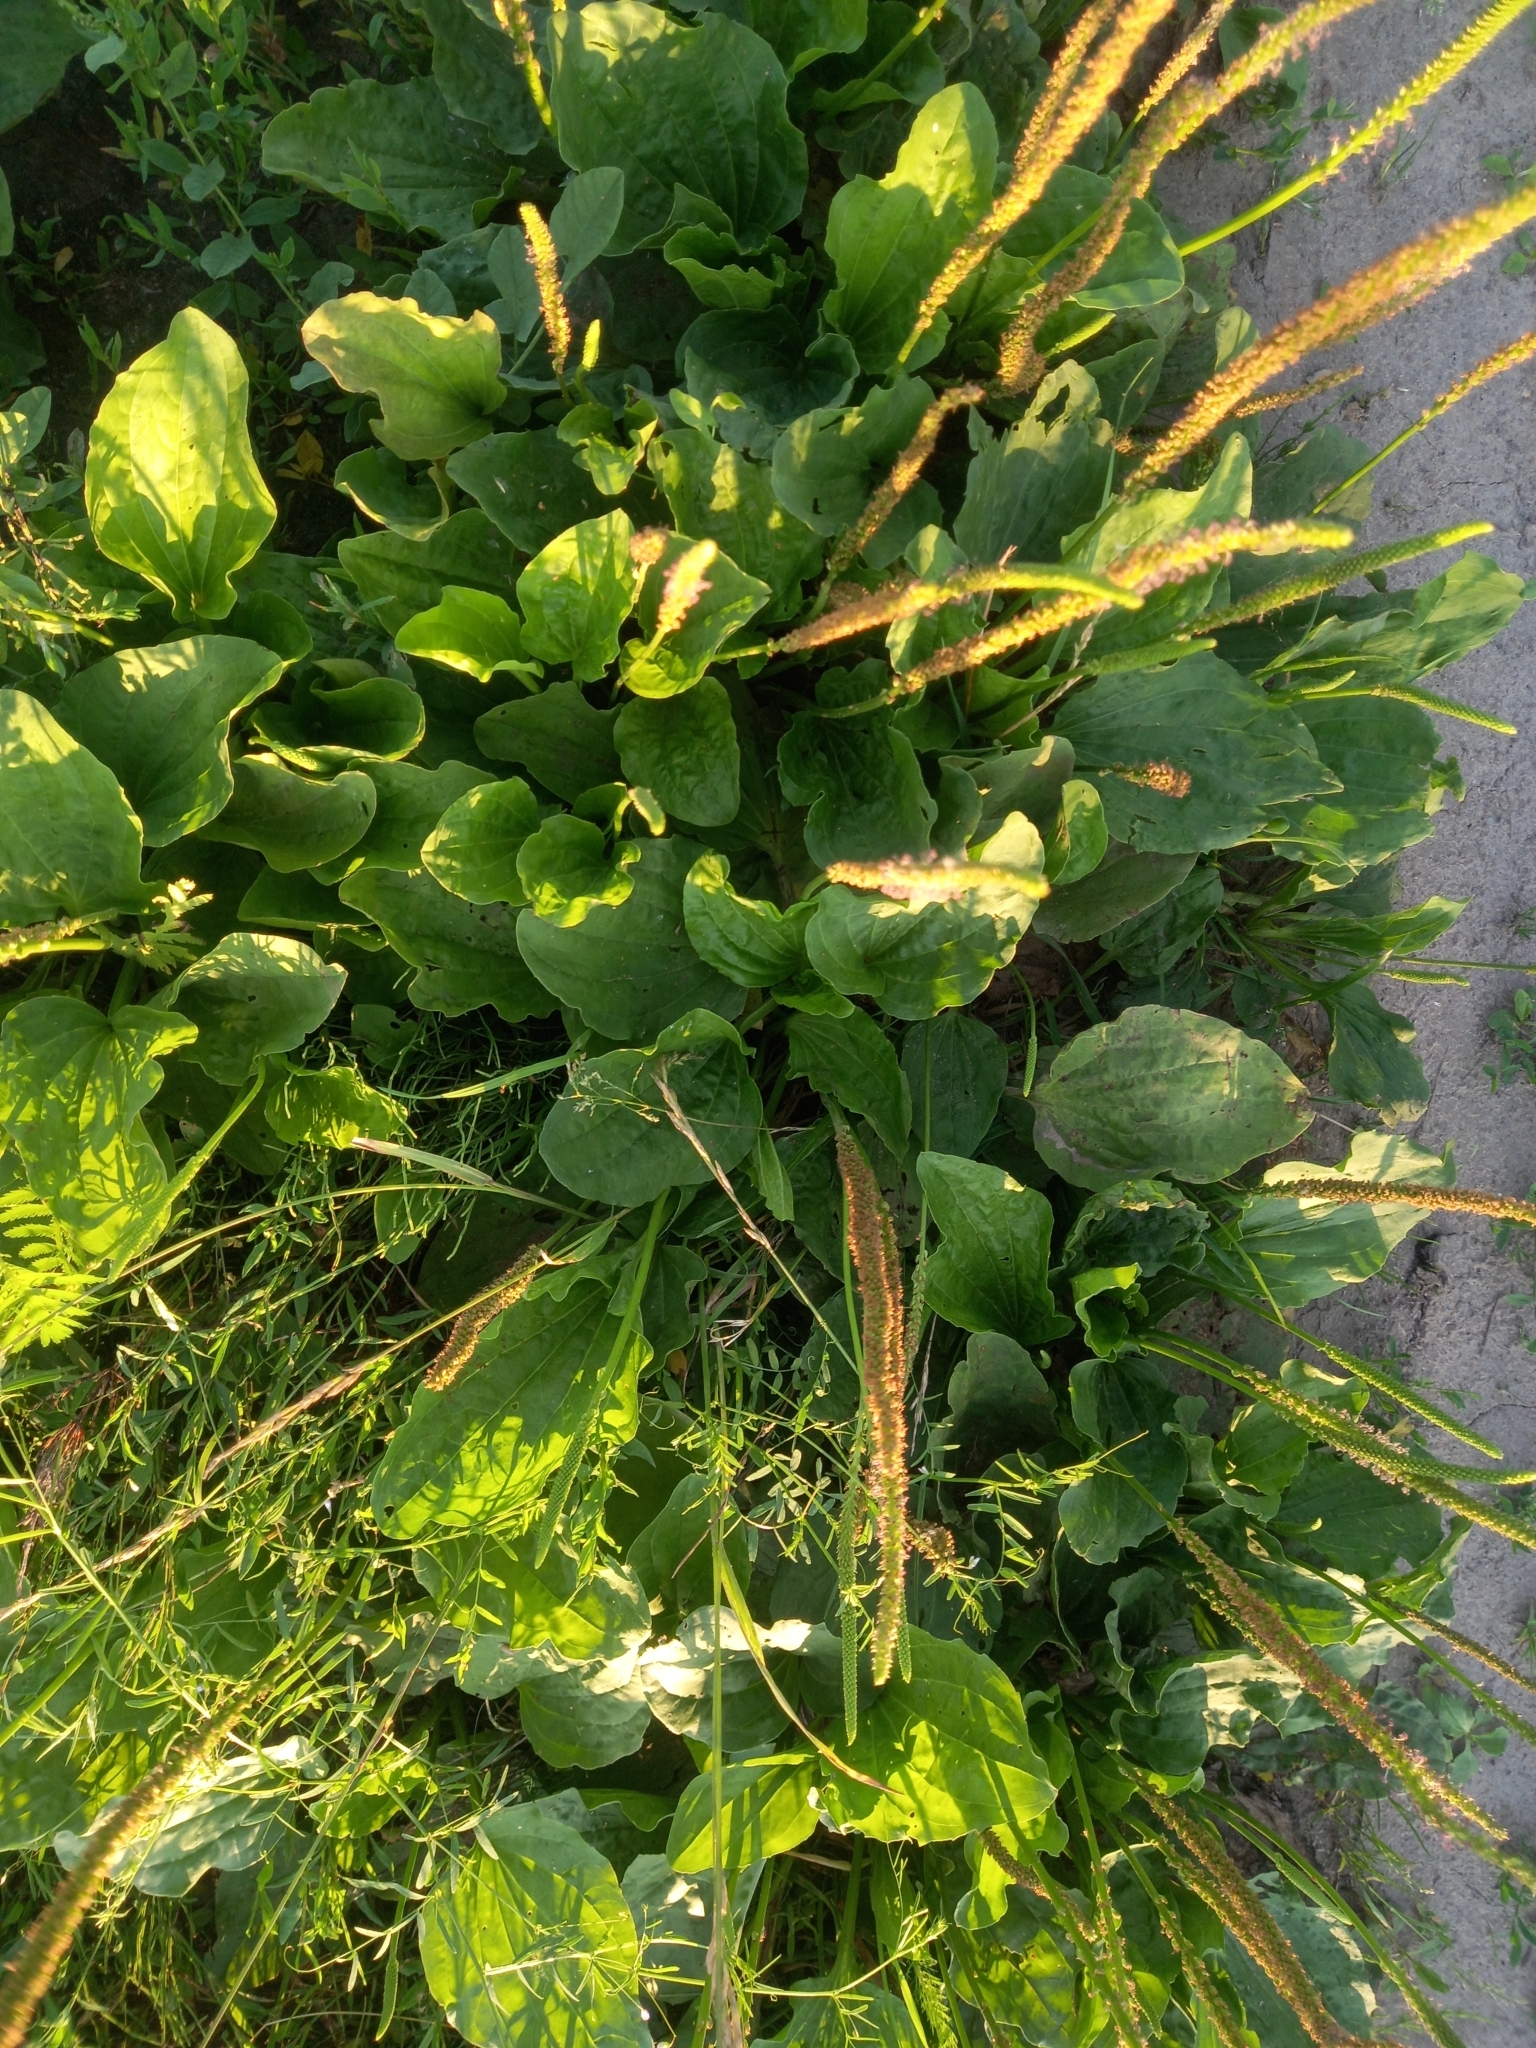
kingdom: Plantae
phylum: Tracheophyta
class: Magnoliopsida
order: Lamiales
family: Plantaginaceae
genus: Plantago
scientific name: Plantago major
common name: Common plantain
